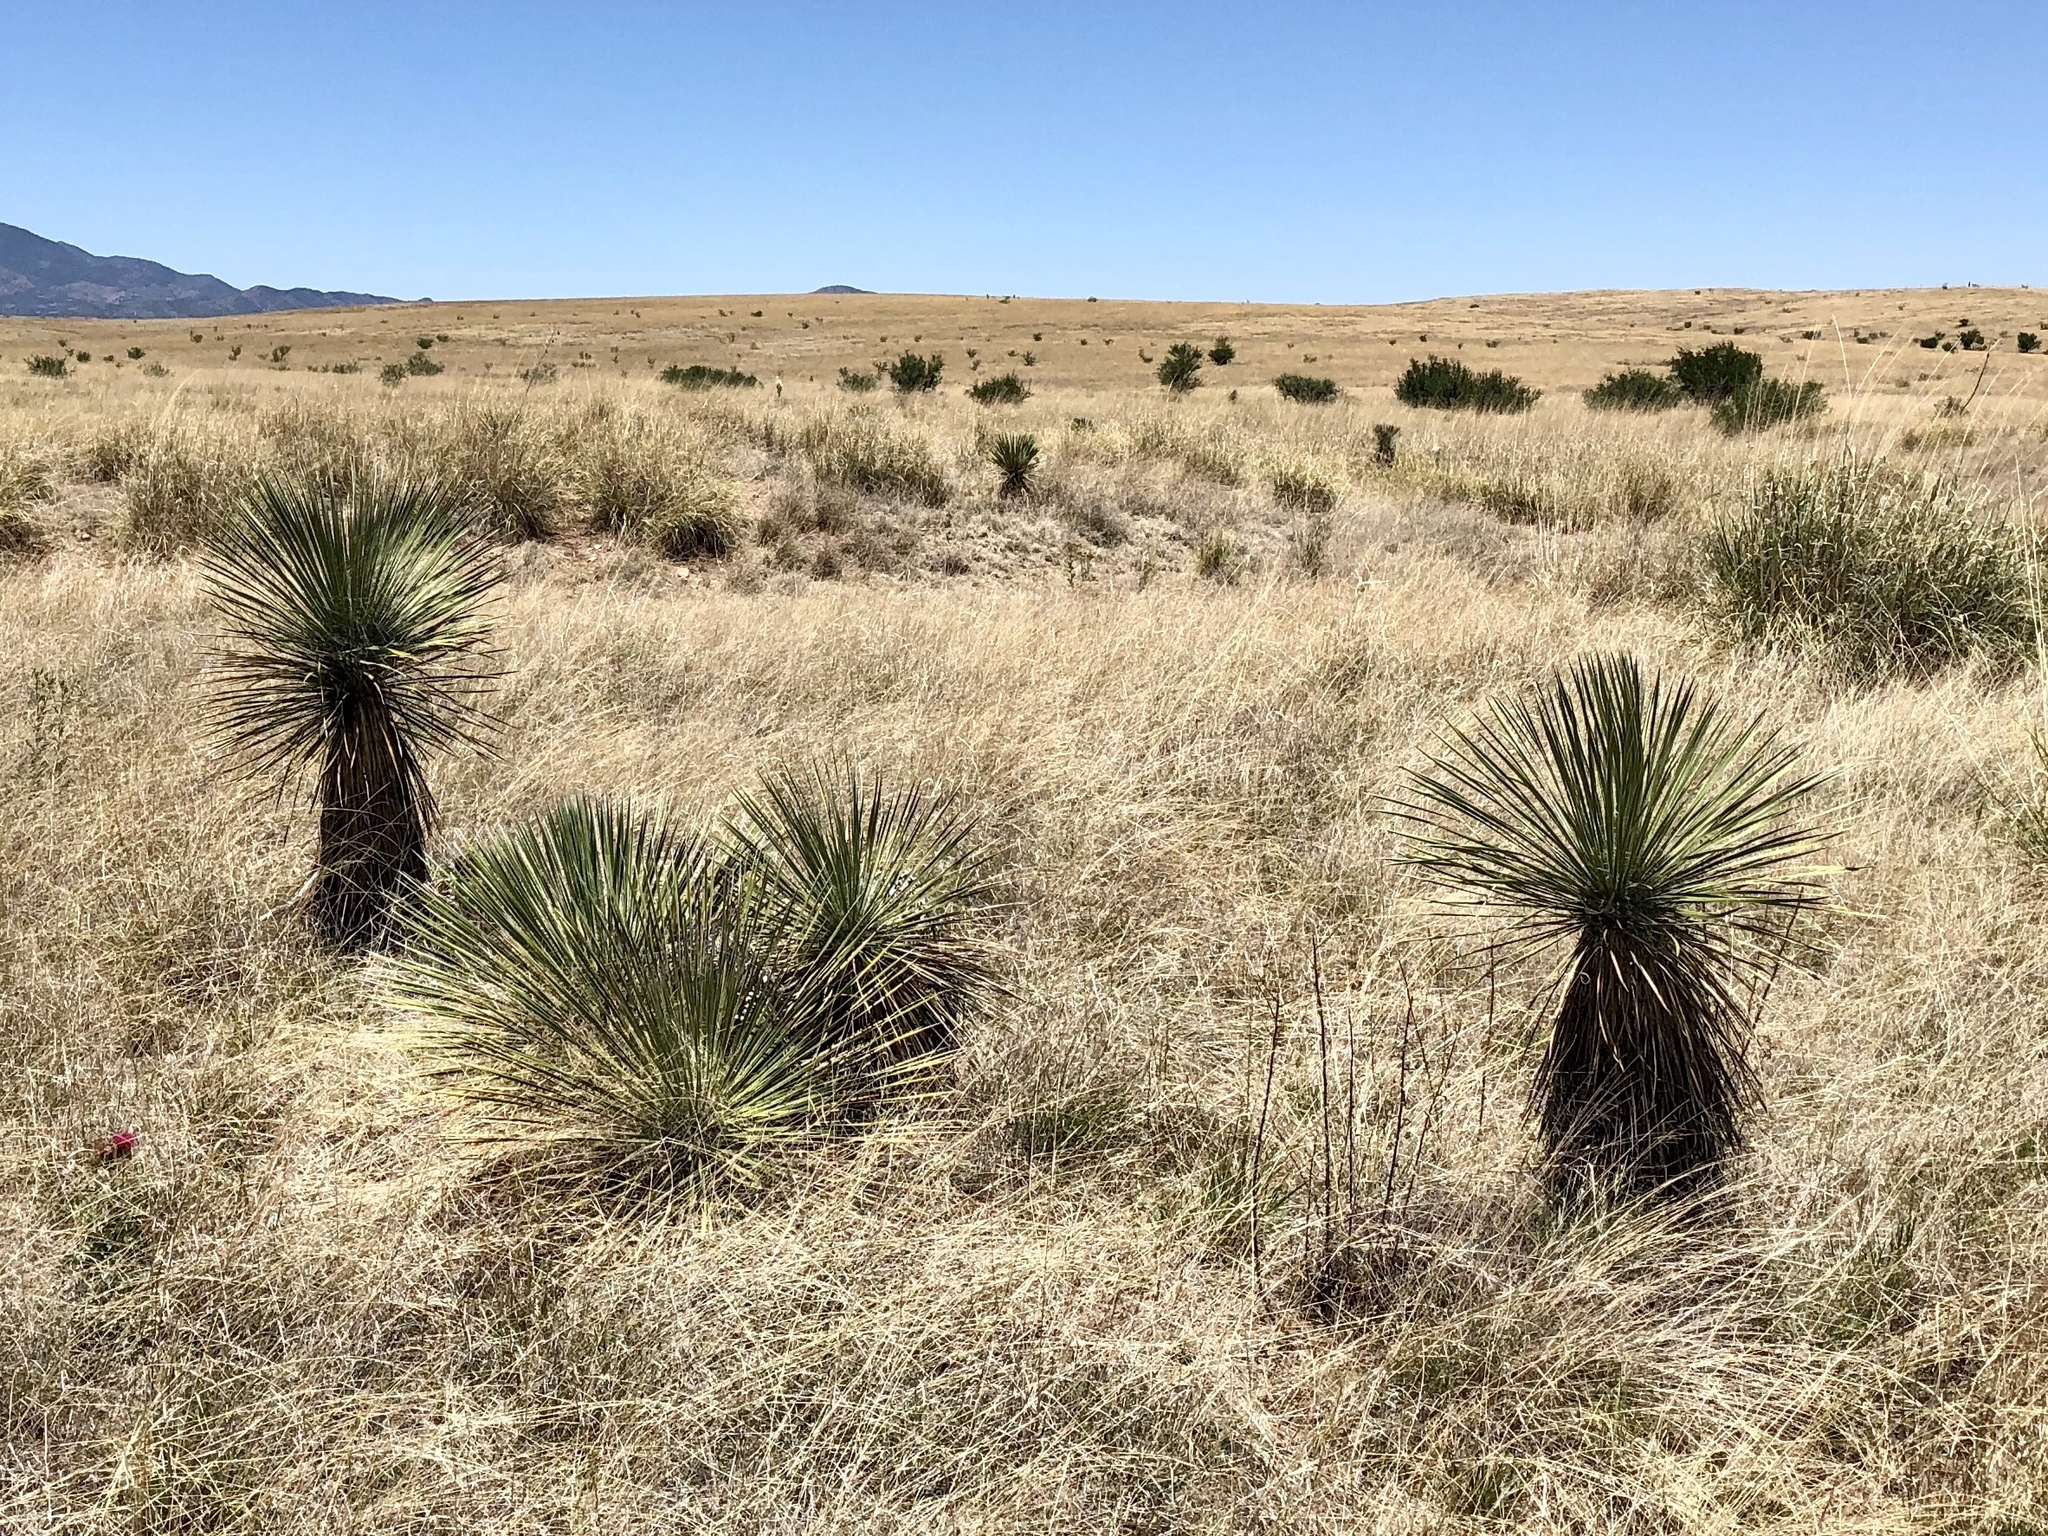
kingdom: Plantae
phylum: Tracheophyta
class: Liliopsida
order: Asparagales
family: Asparagaceae
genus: Yucca
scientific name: Yucca elata
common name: Palmella
